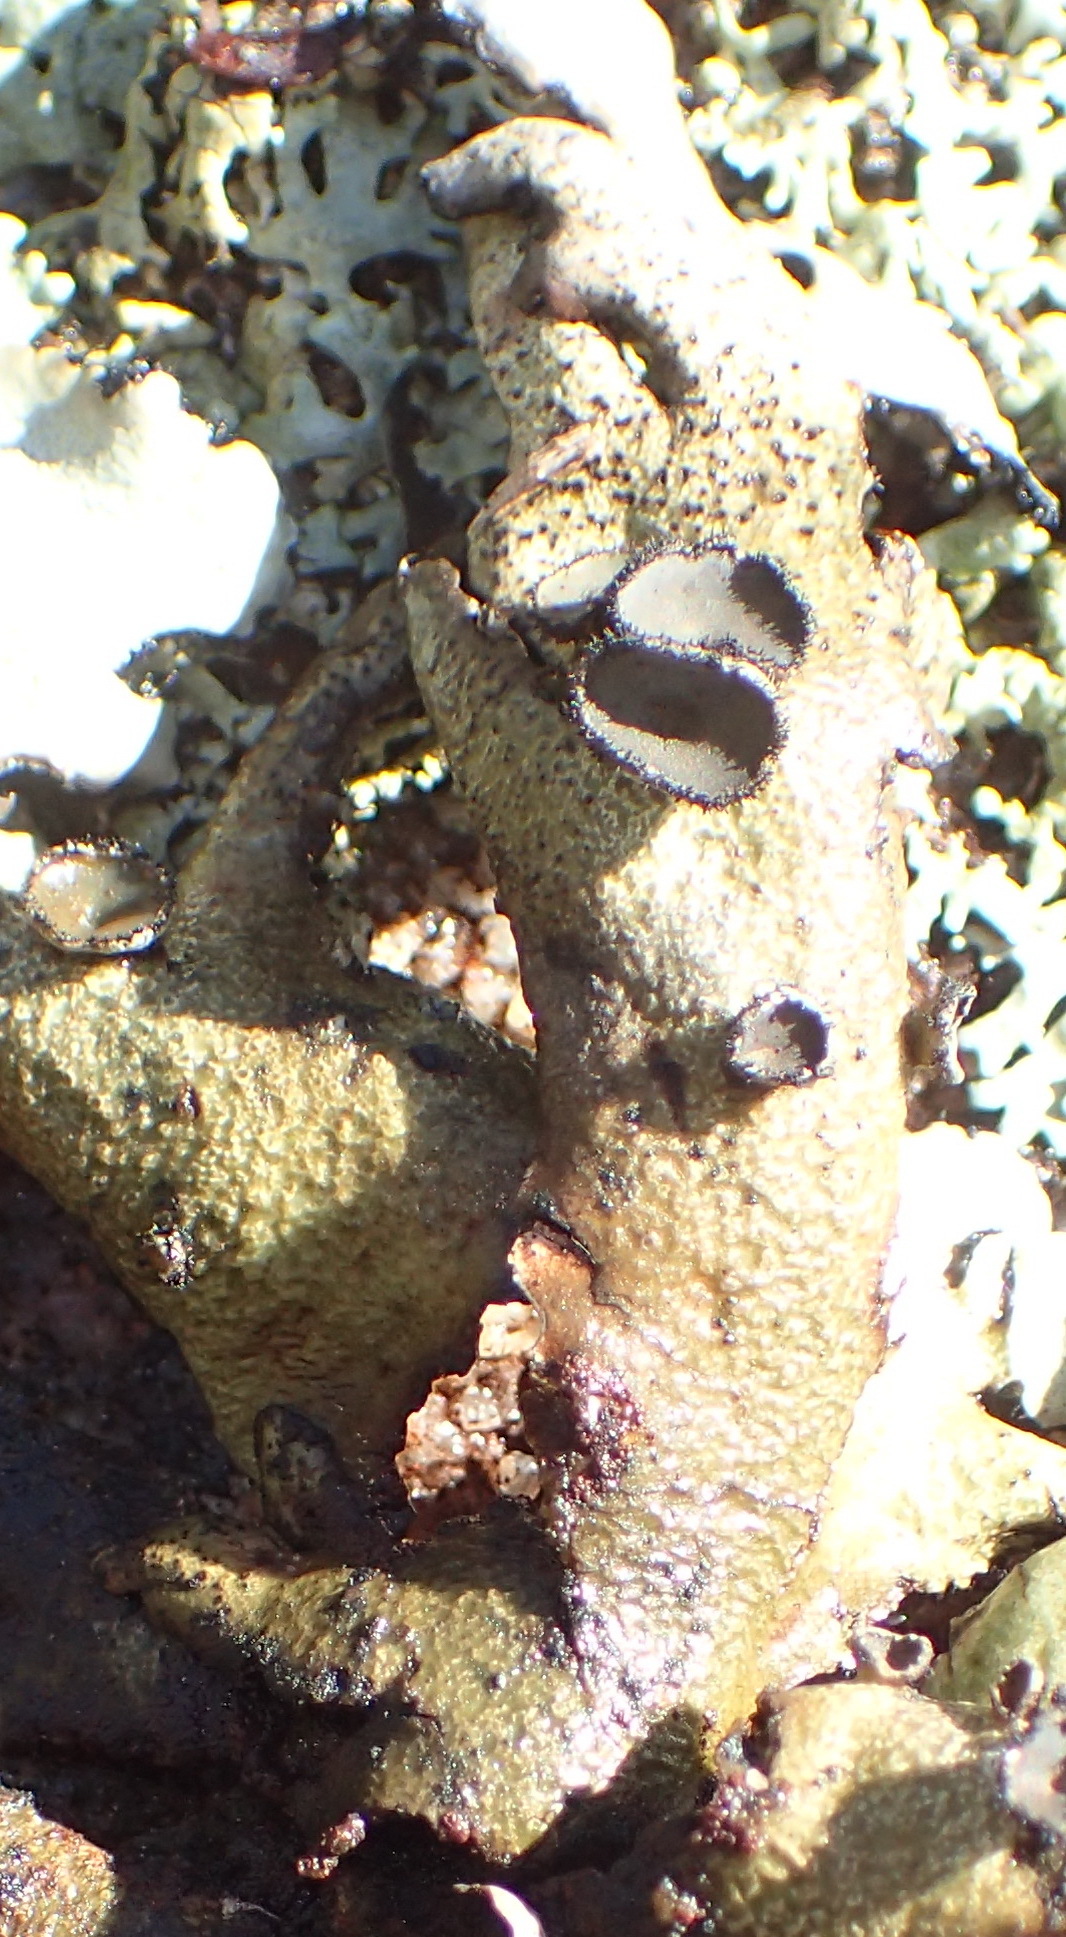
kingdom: Fungi
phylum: Ascomycota
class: Lecanoromycetes
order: Lecanorales
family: Parmeliaceae
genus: Xanthoparmelia
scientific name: Xanthoparmelia hottentotta
